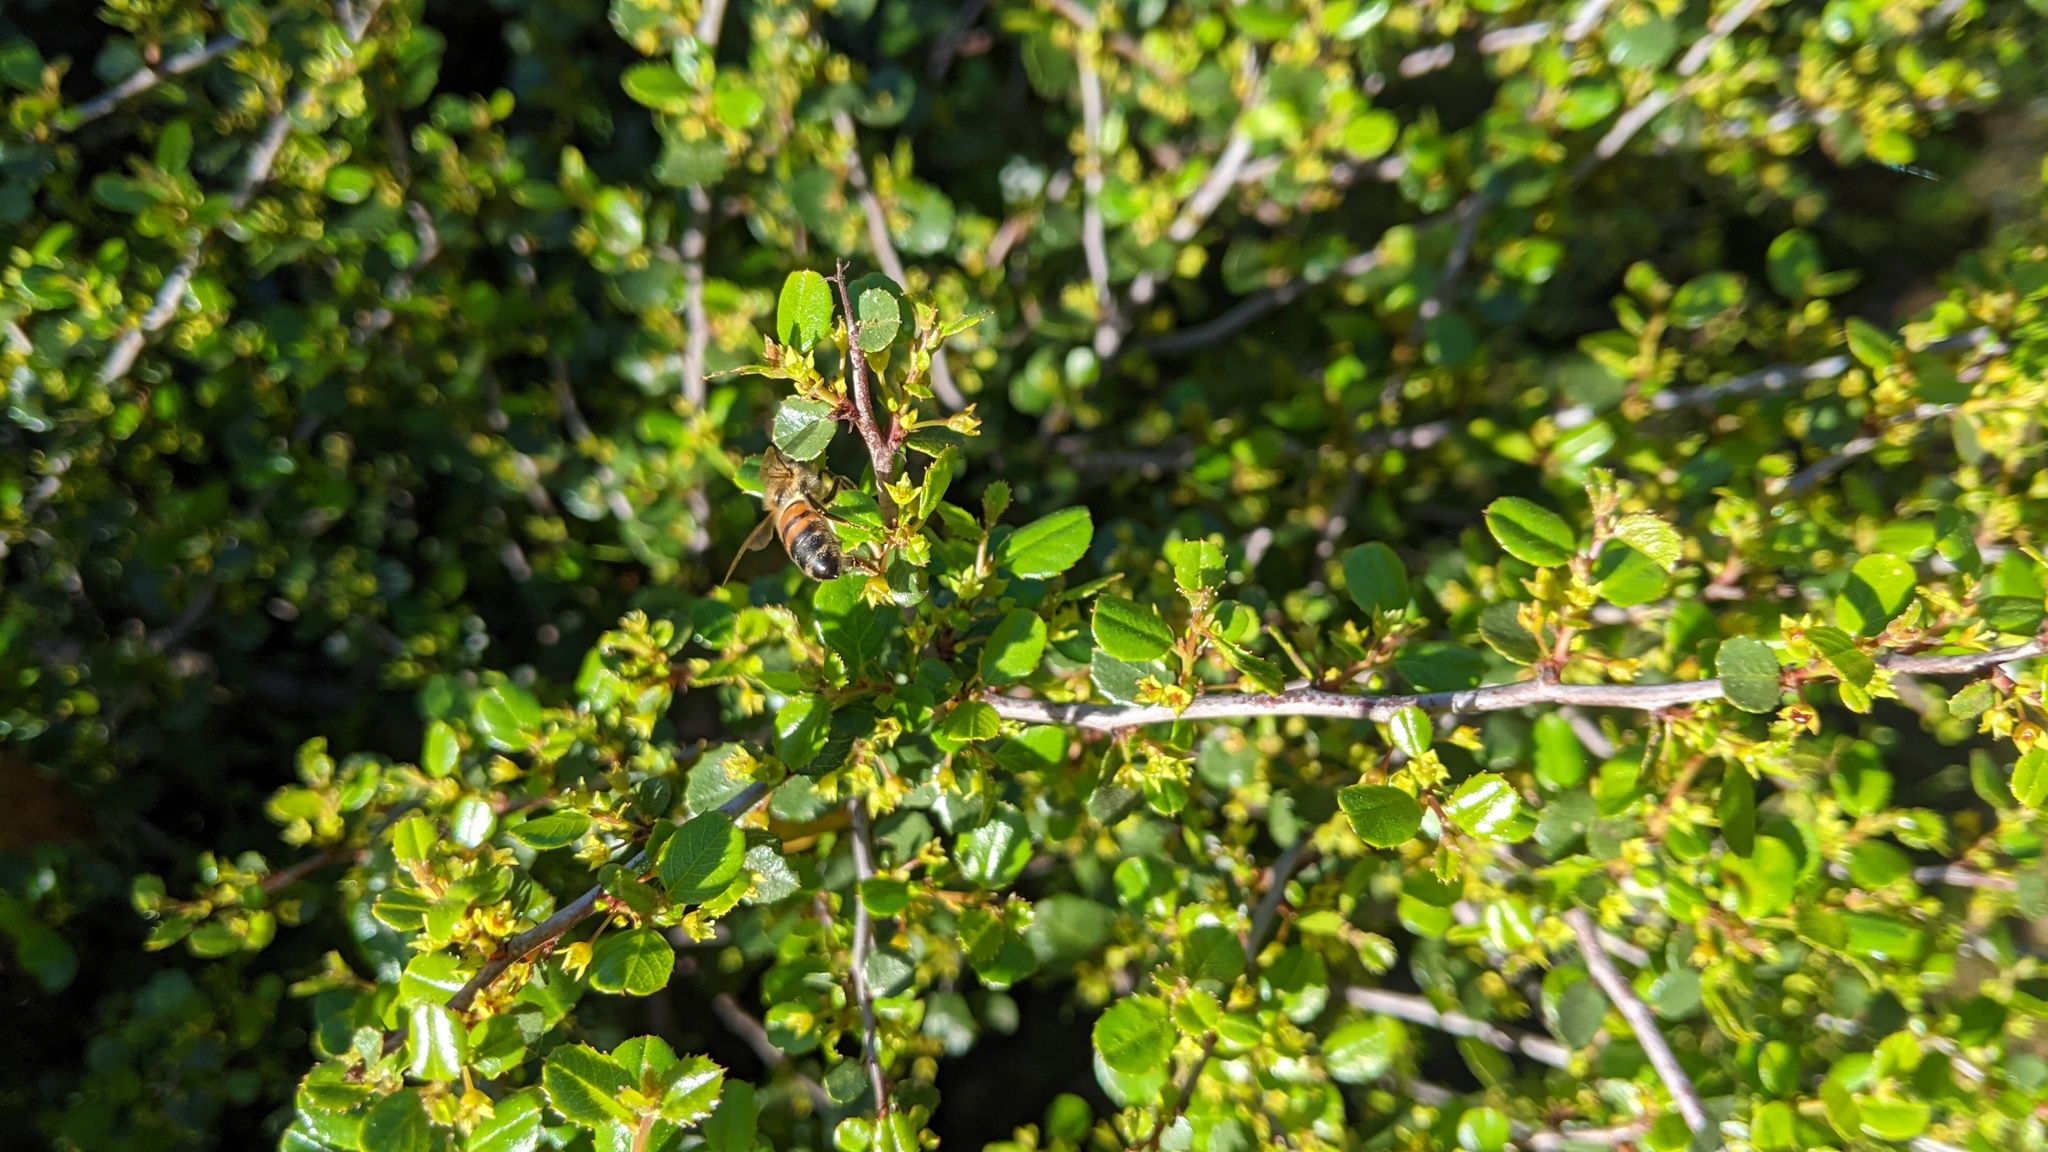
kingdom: Animalia
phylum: Arthropoda
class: Insecta
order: Hymenoptera
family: Apidae
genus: Apis
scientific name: Apis mellifera
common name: Honey bee
